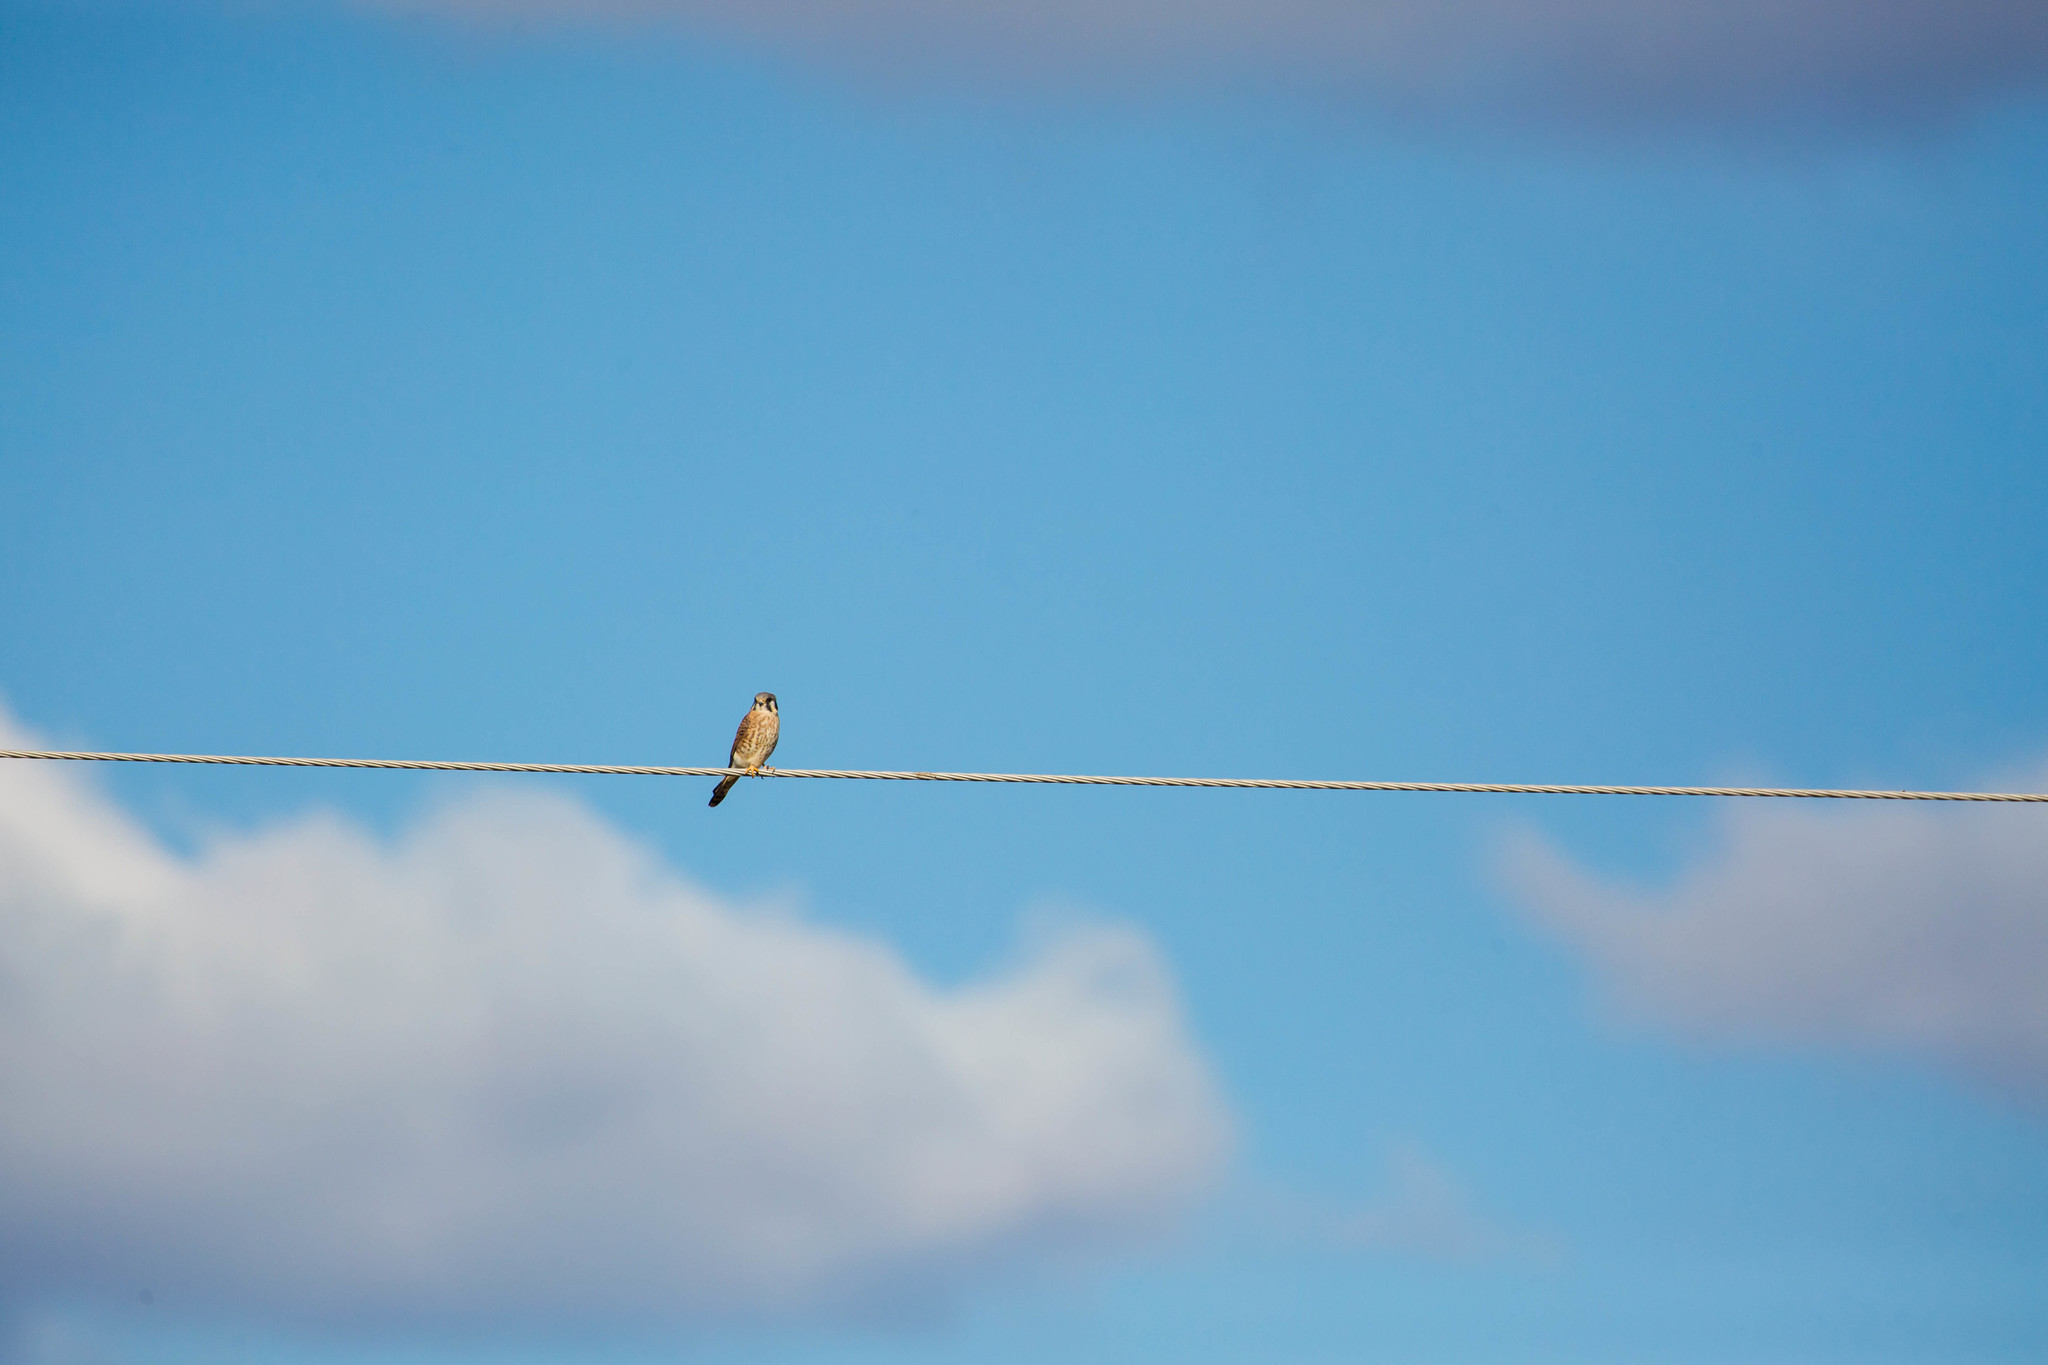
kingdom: Animalia
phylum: Chordata
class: Aves
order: Falconiformes
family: Falconidae
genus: Falco
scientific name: Falco sparverius
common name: American kestrel
